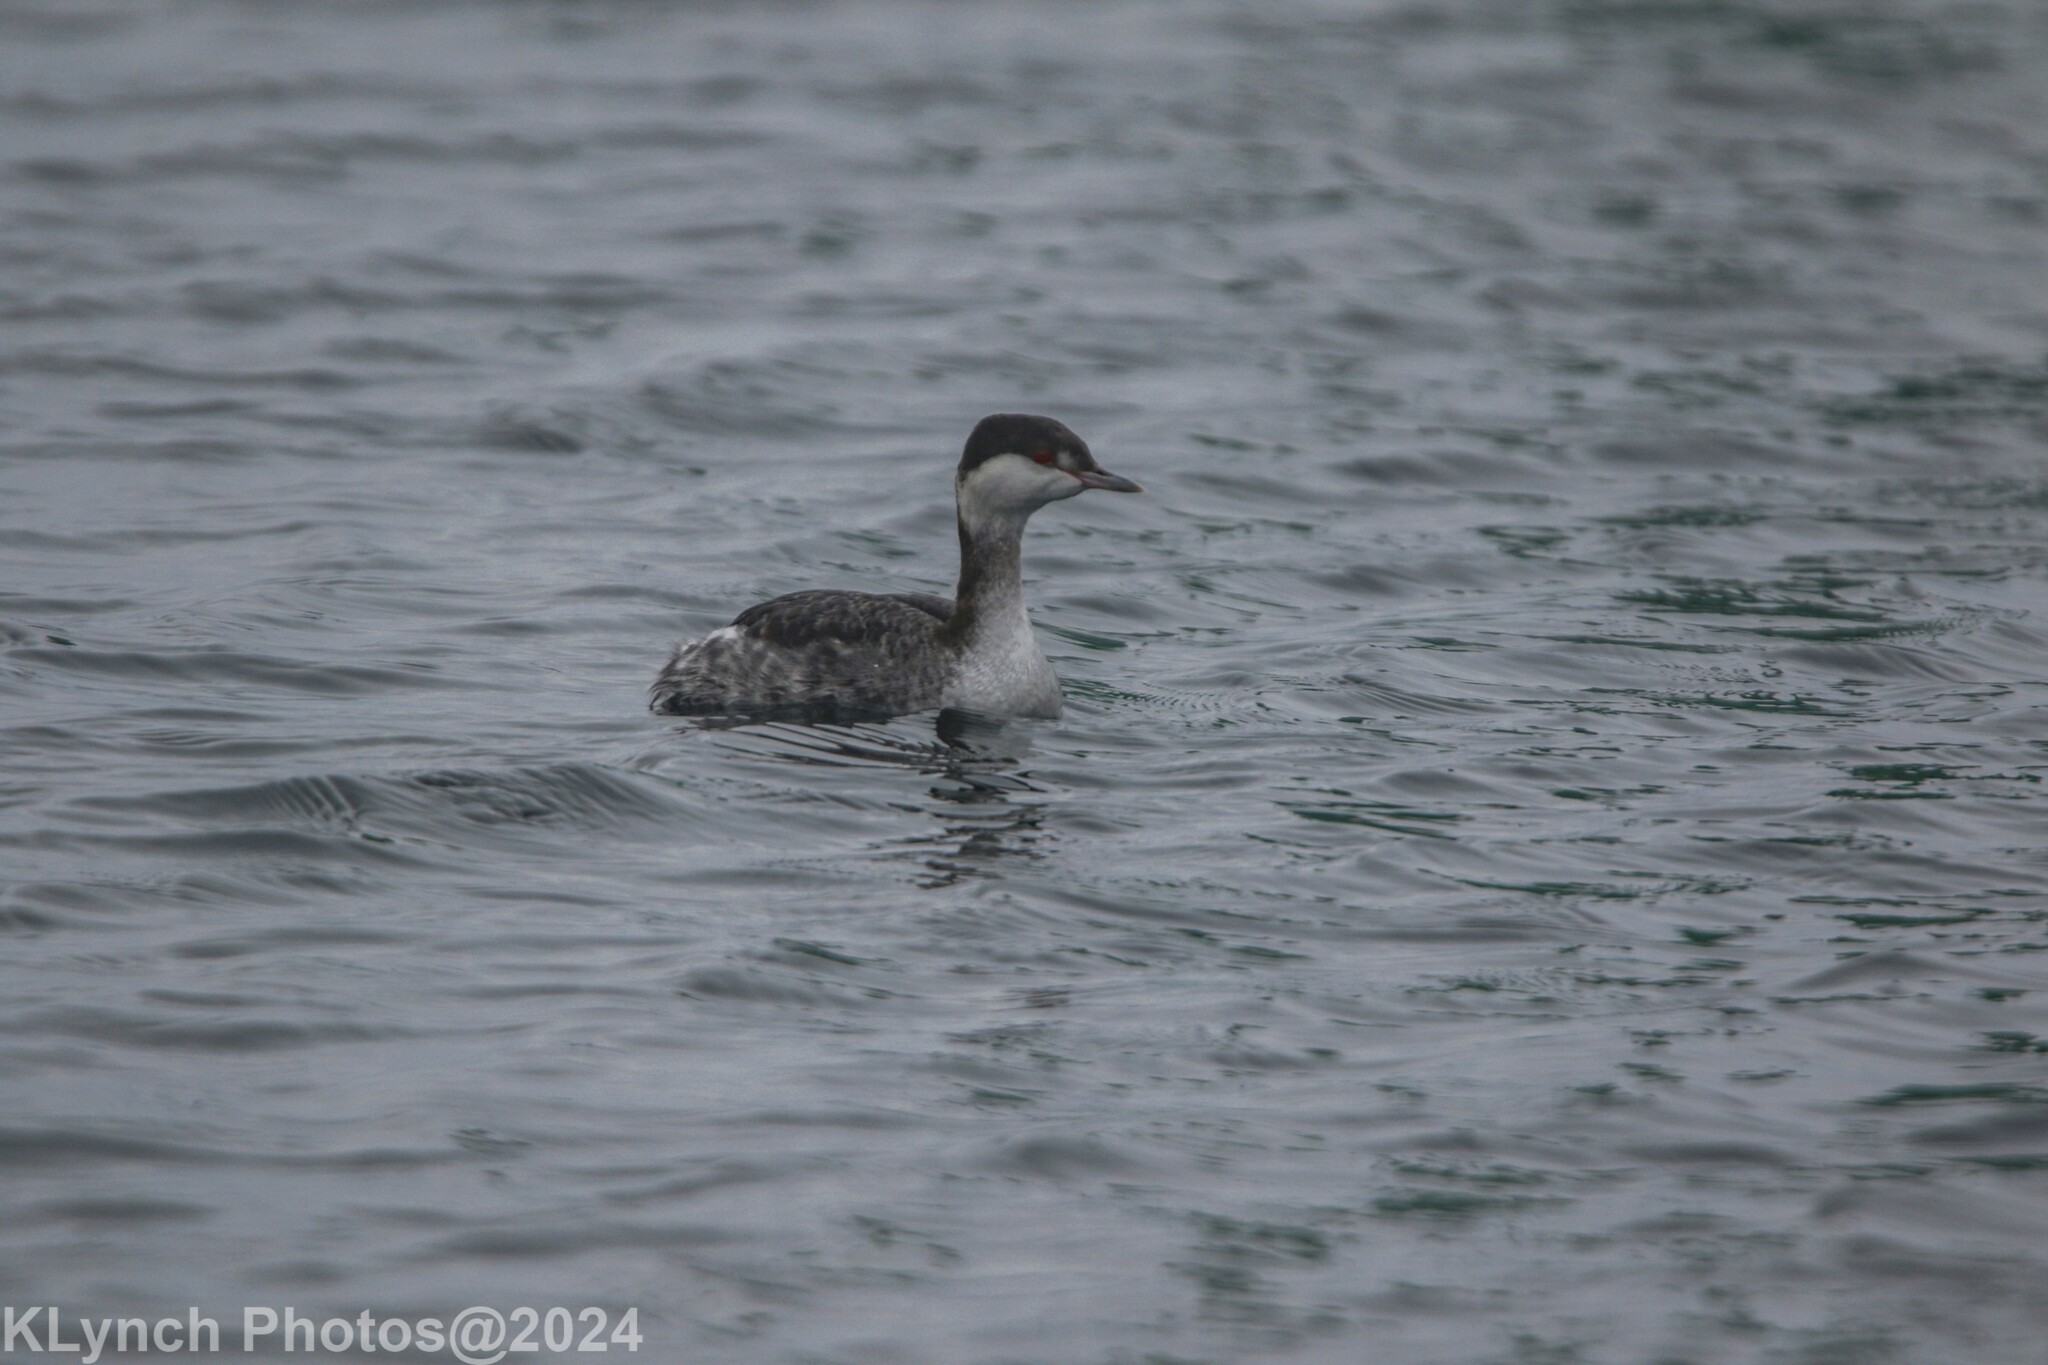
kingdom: Animalia
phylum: Chordata
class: Aves
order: Podicipediformes
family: Podicipedidae
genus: Podiceps
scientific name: Podiceps auritus
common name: Horned grebe
